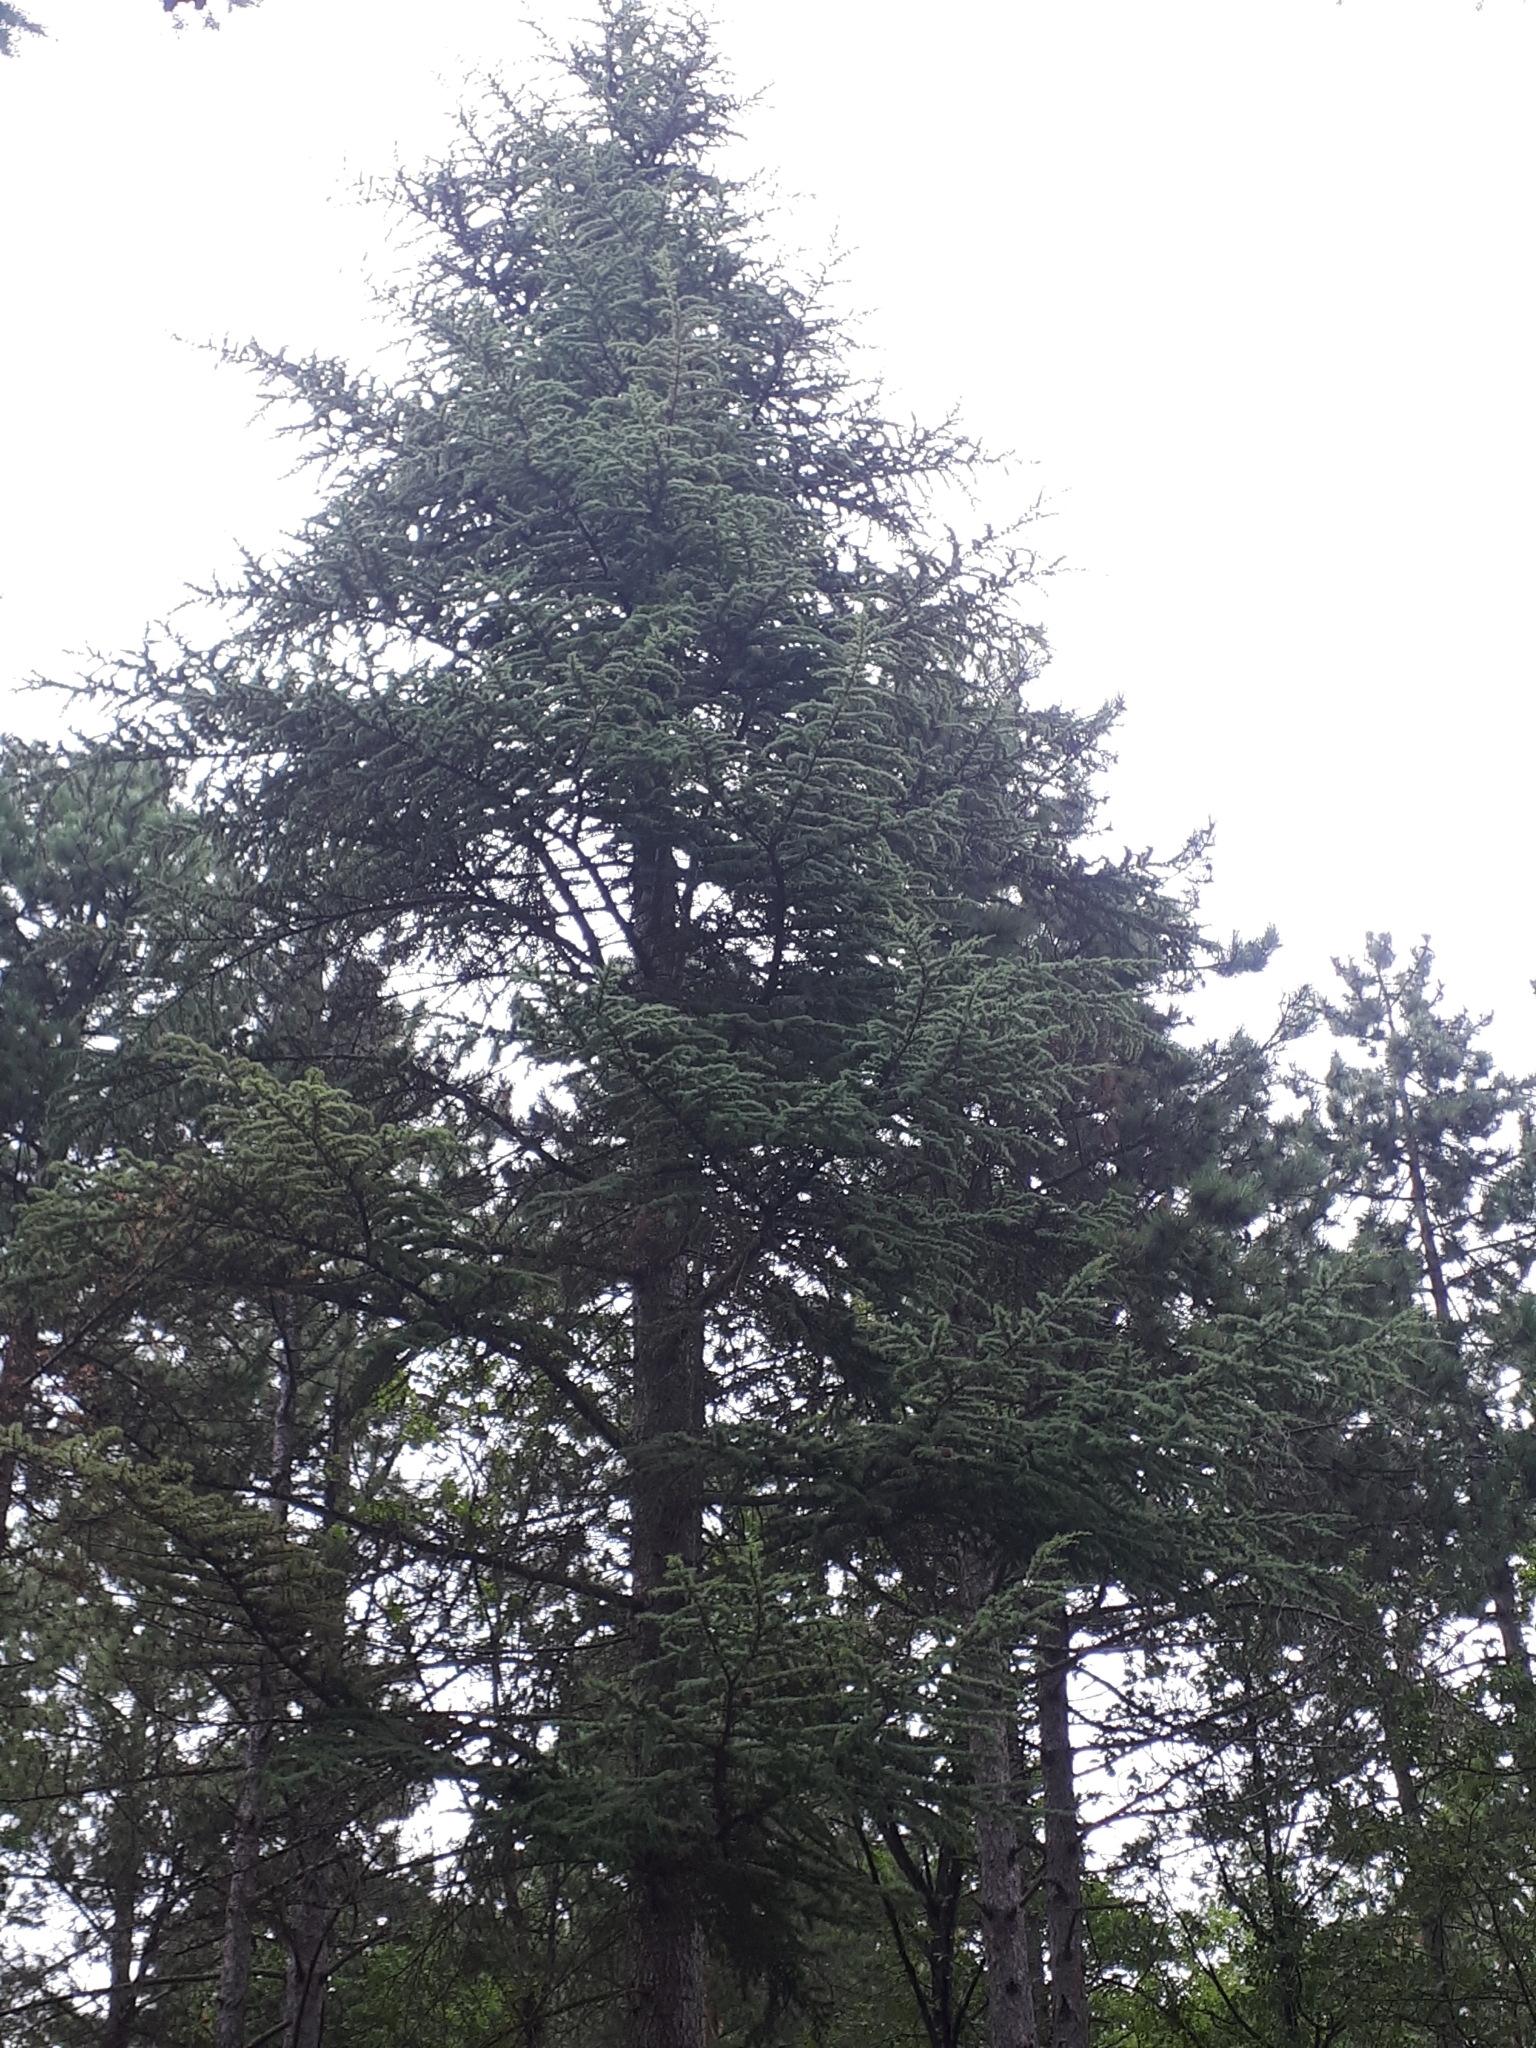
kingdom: Plantae
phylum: Tracheophyta
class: Pinopsida
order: Pinales
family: Pinaceae
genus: Cedrus
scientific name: Cedrus atlantica
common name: Atlas cedar
